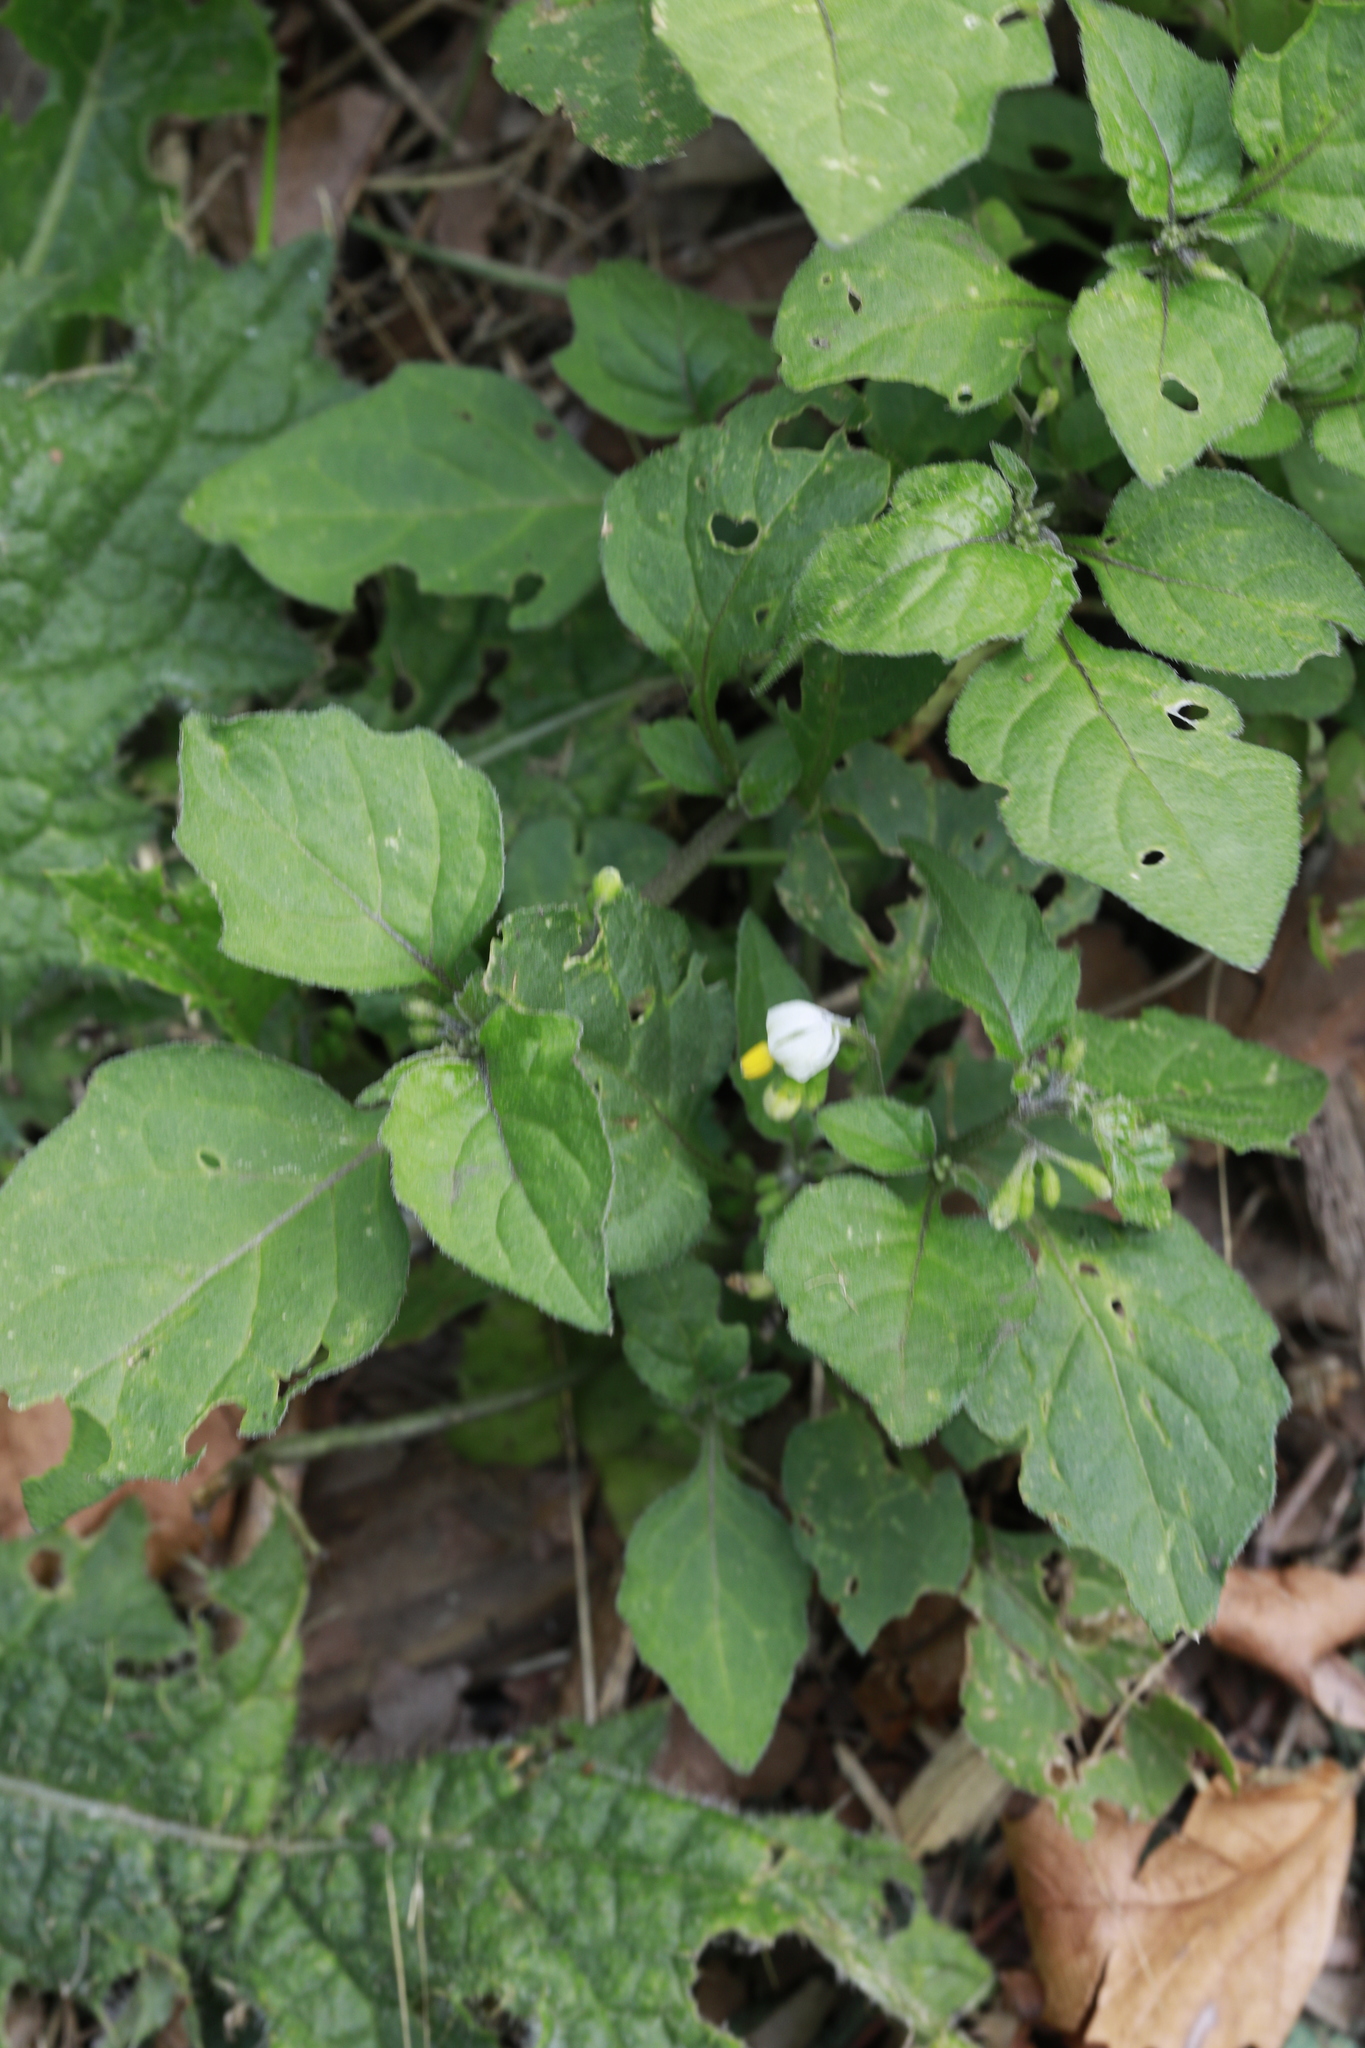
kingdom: Plantae
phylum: Tracheophyta
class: Magnoliopsida
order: Solanales
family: Solanaceae
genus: Solanum
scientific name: Solanum nigrum
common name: Black nightshade
